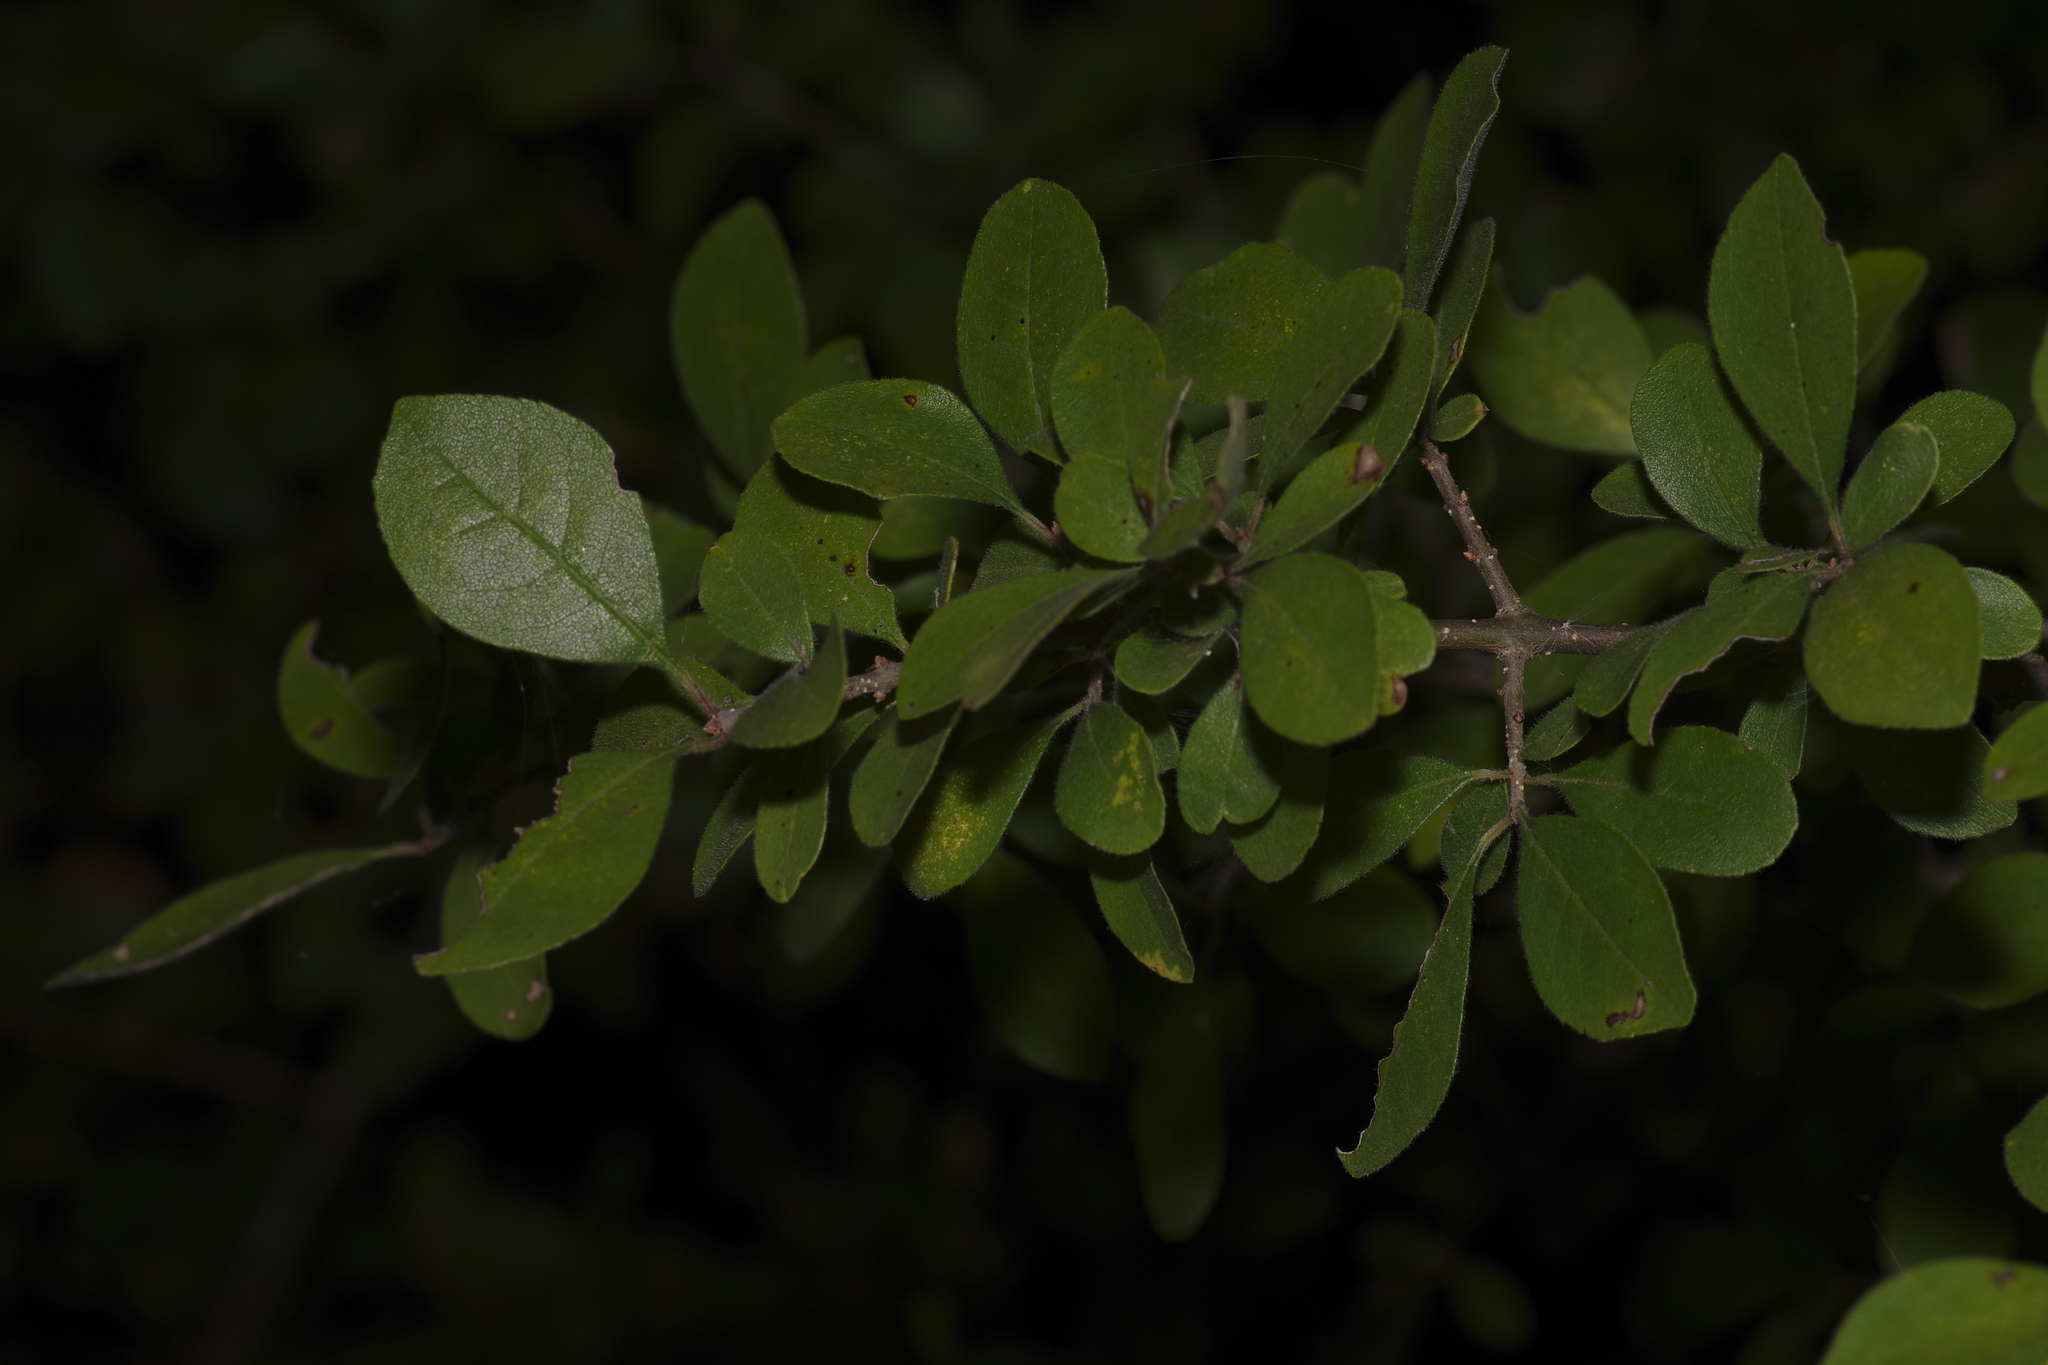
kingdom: Plantae
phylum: Tracheophyta
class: Magnoliopsida
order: Lamiales
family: Oleaceae
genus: Forestiera
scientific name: Forestiera pubescens
